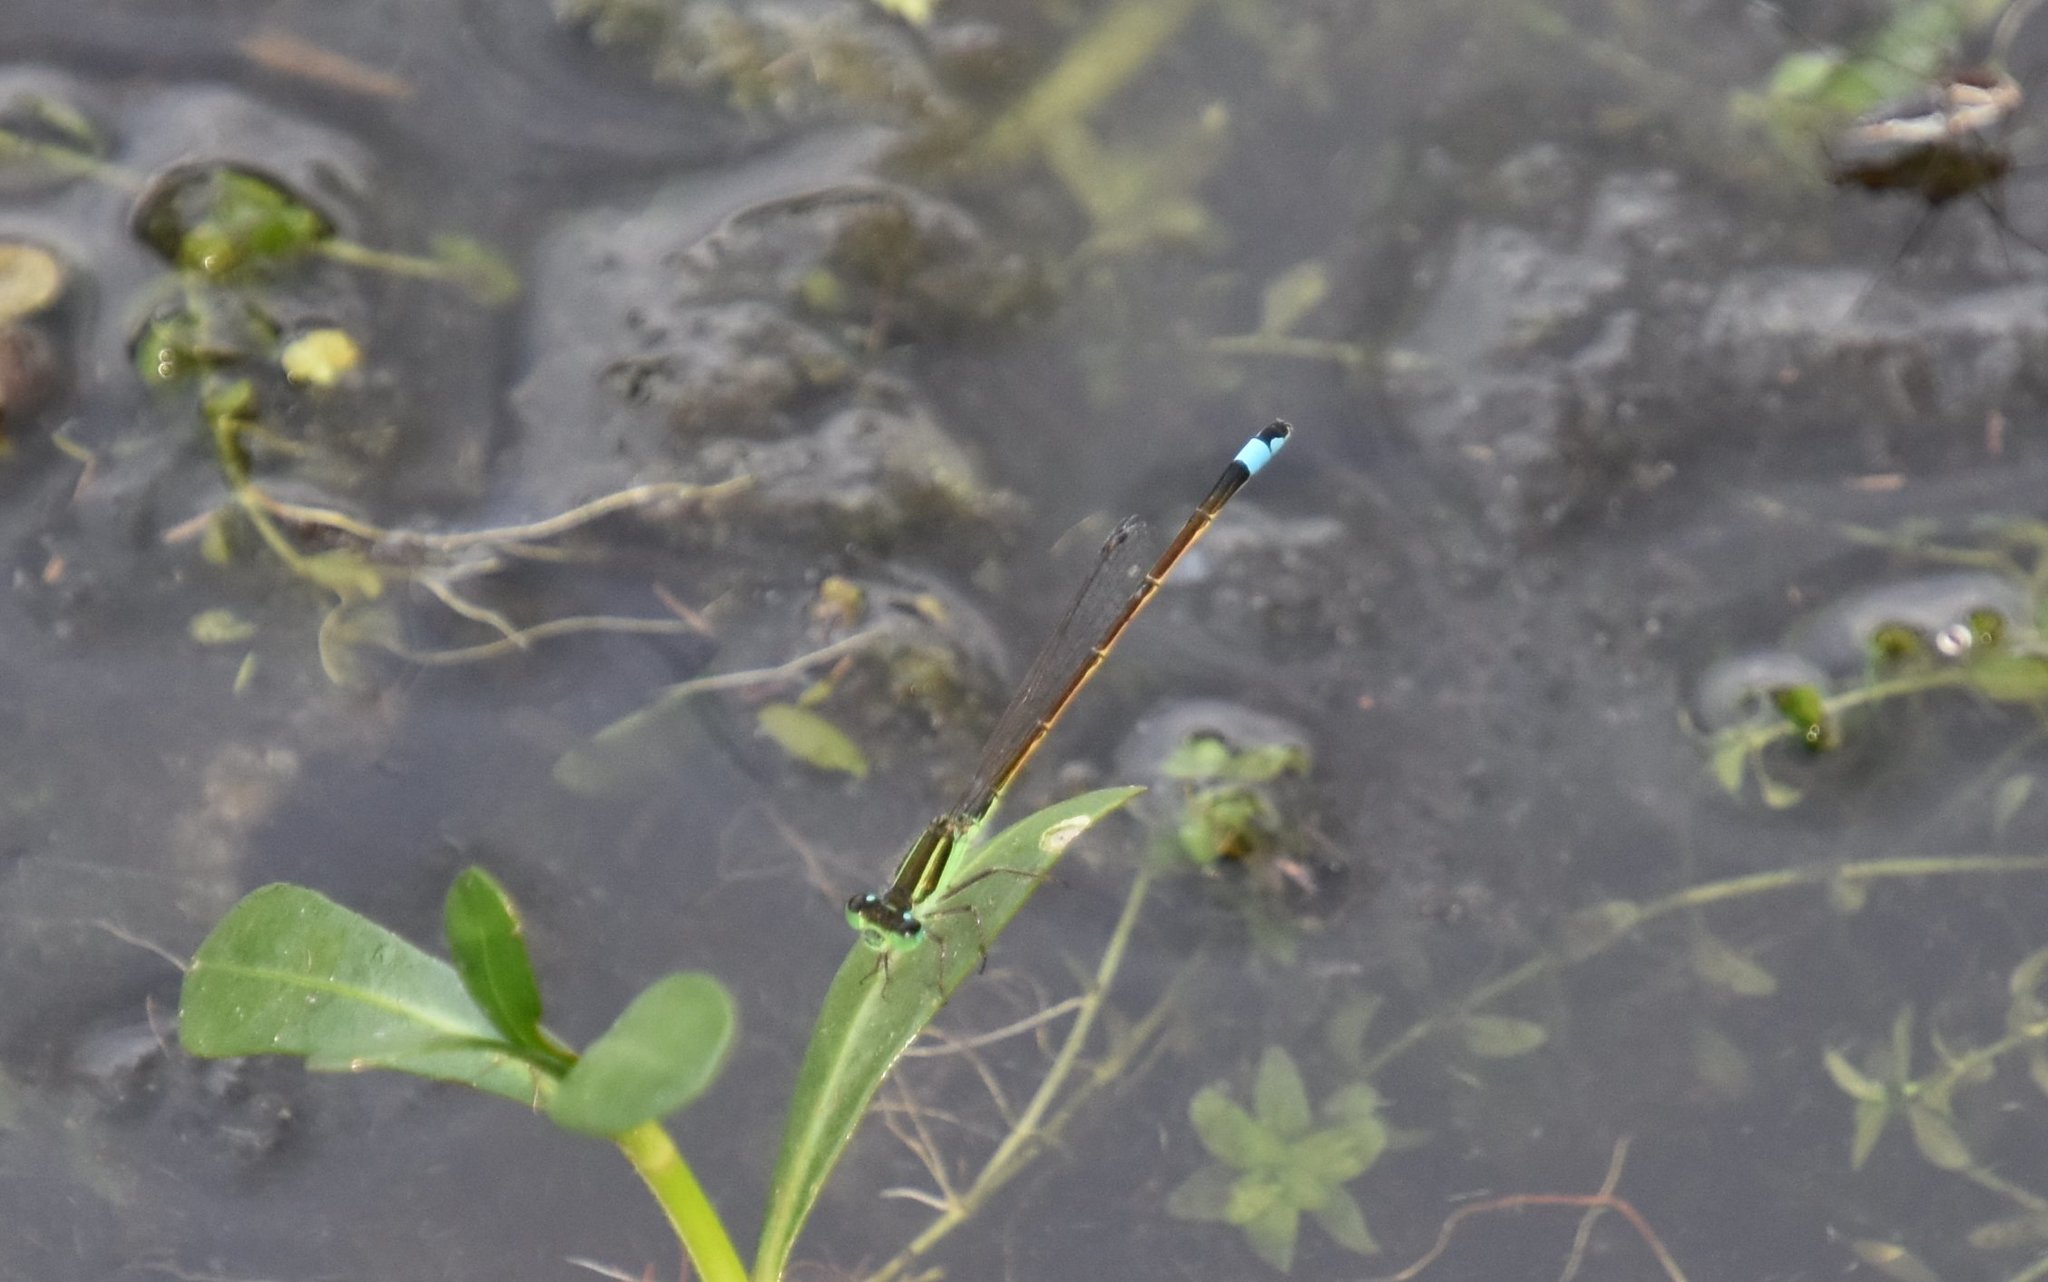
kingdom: Animalia
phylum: Arthropoda
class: Insecta
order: Odonata
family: Coenagrionidae
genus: Ischnura
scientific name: Ischnura ramburii
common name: Rambur's forktail
